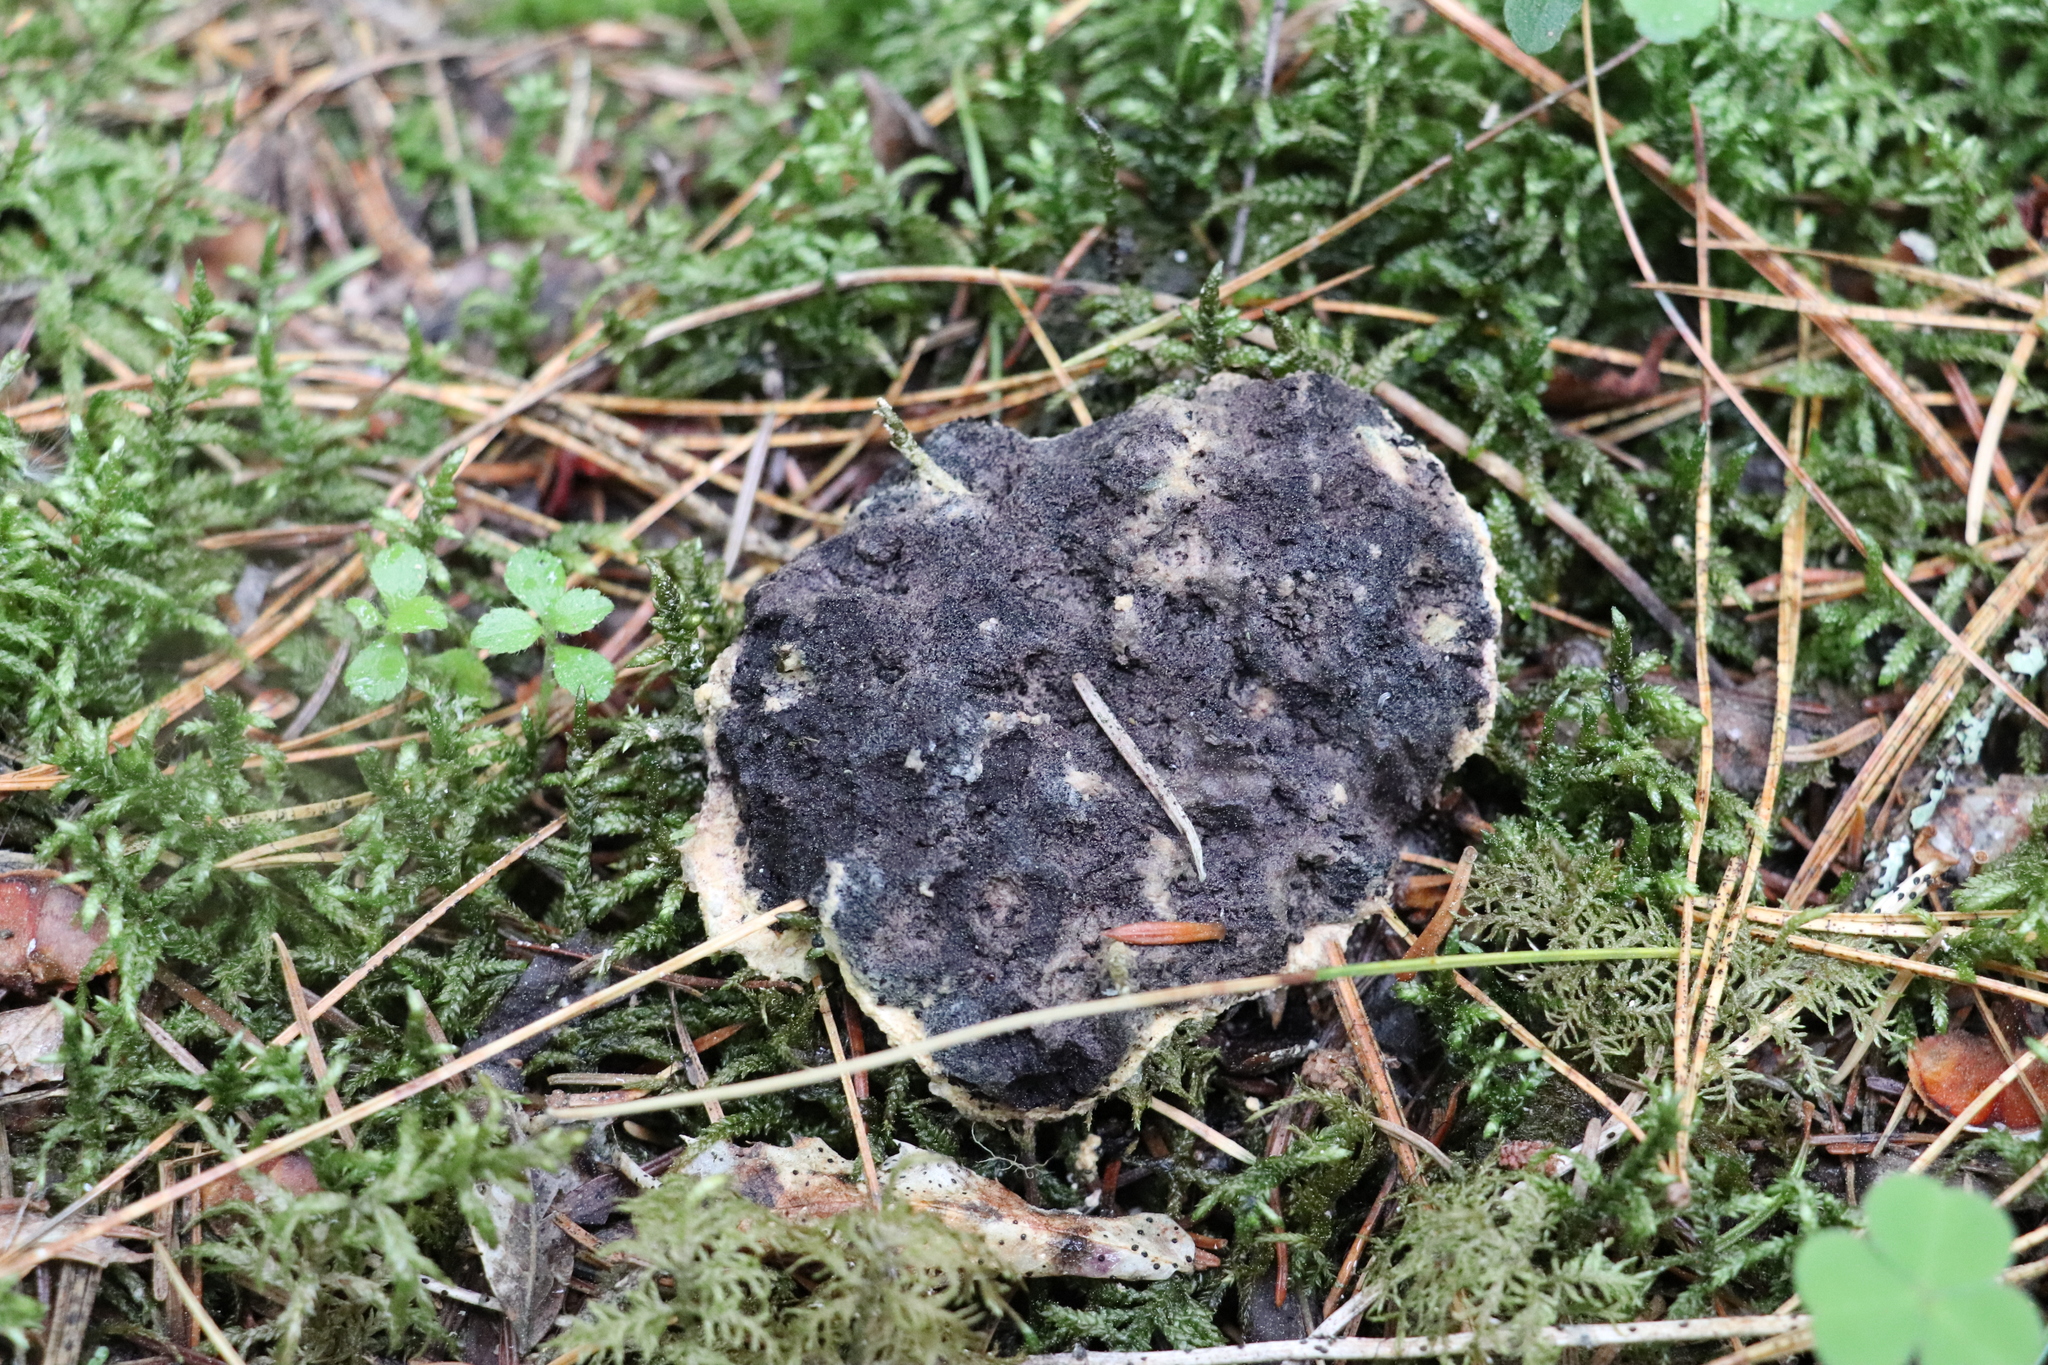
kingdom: Protozoa
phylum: Mycetozoa
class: Myxomycetes
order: Physarales
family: Physaraceae
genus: Fuligo
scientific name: Fuligo septica
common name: Dog vomit slime mold
